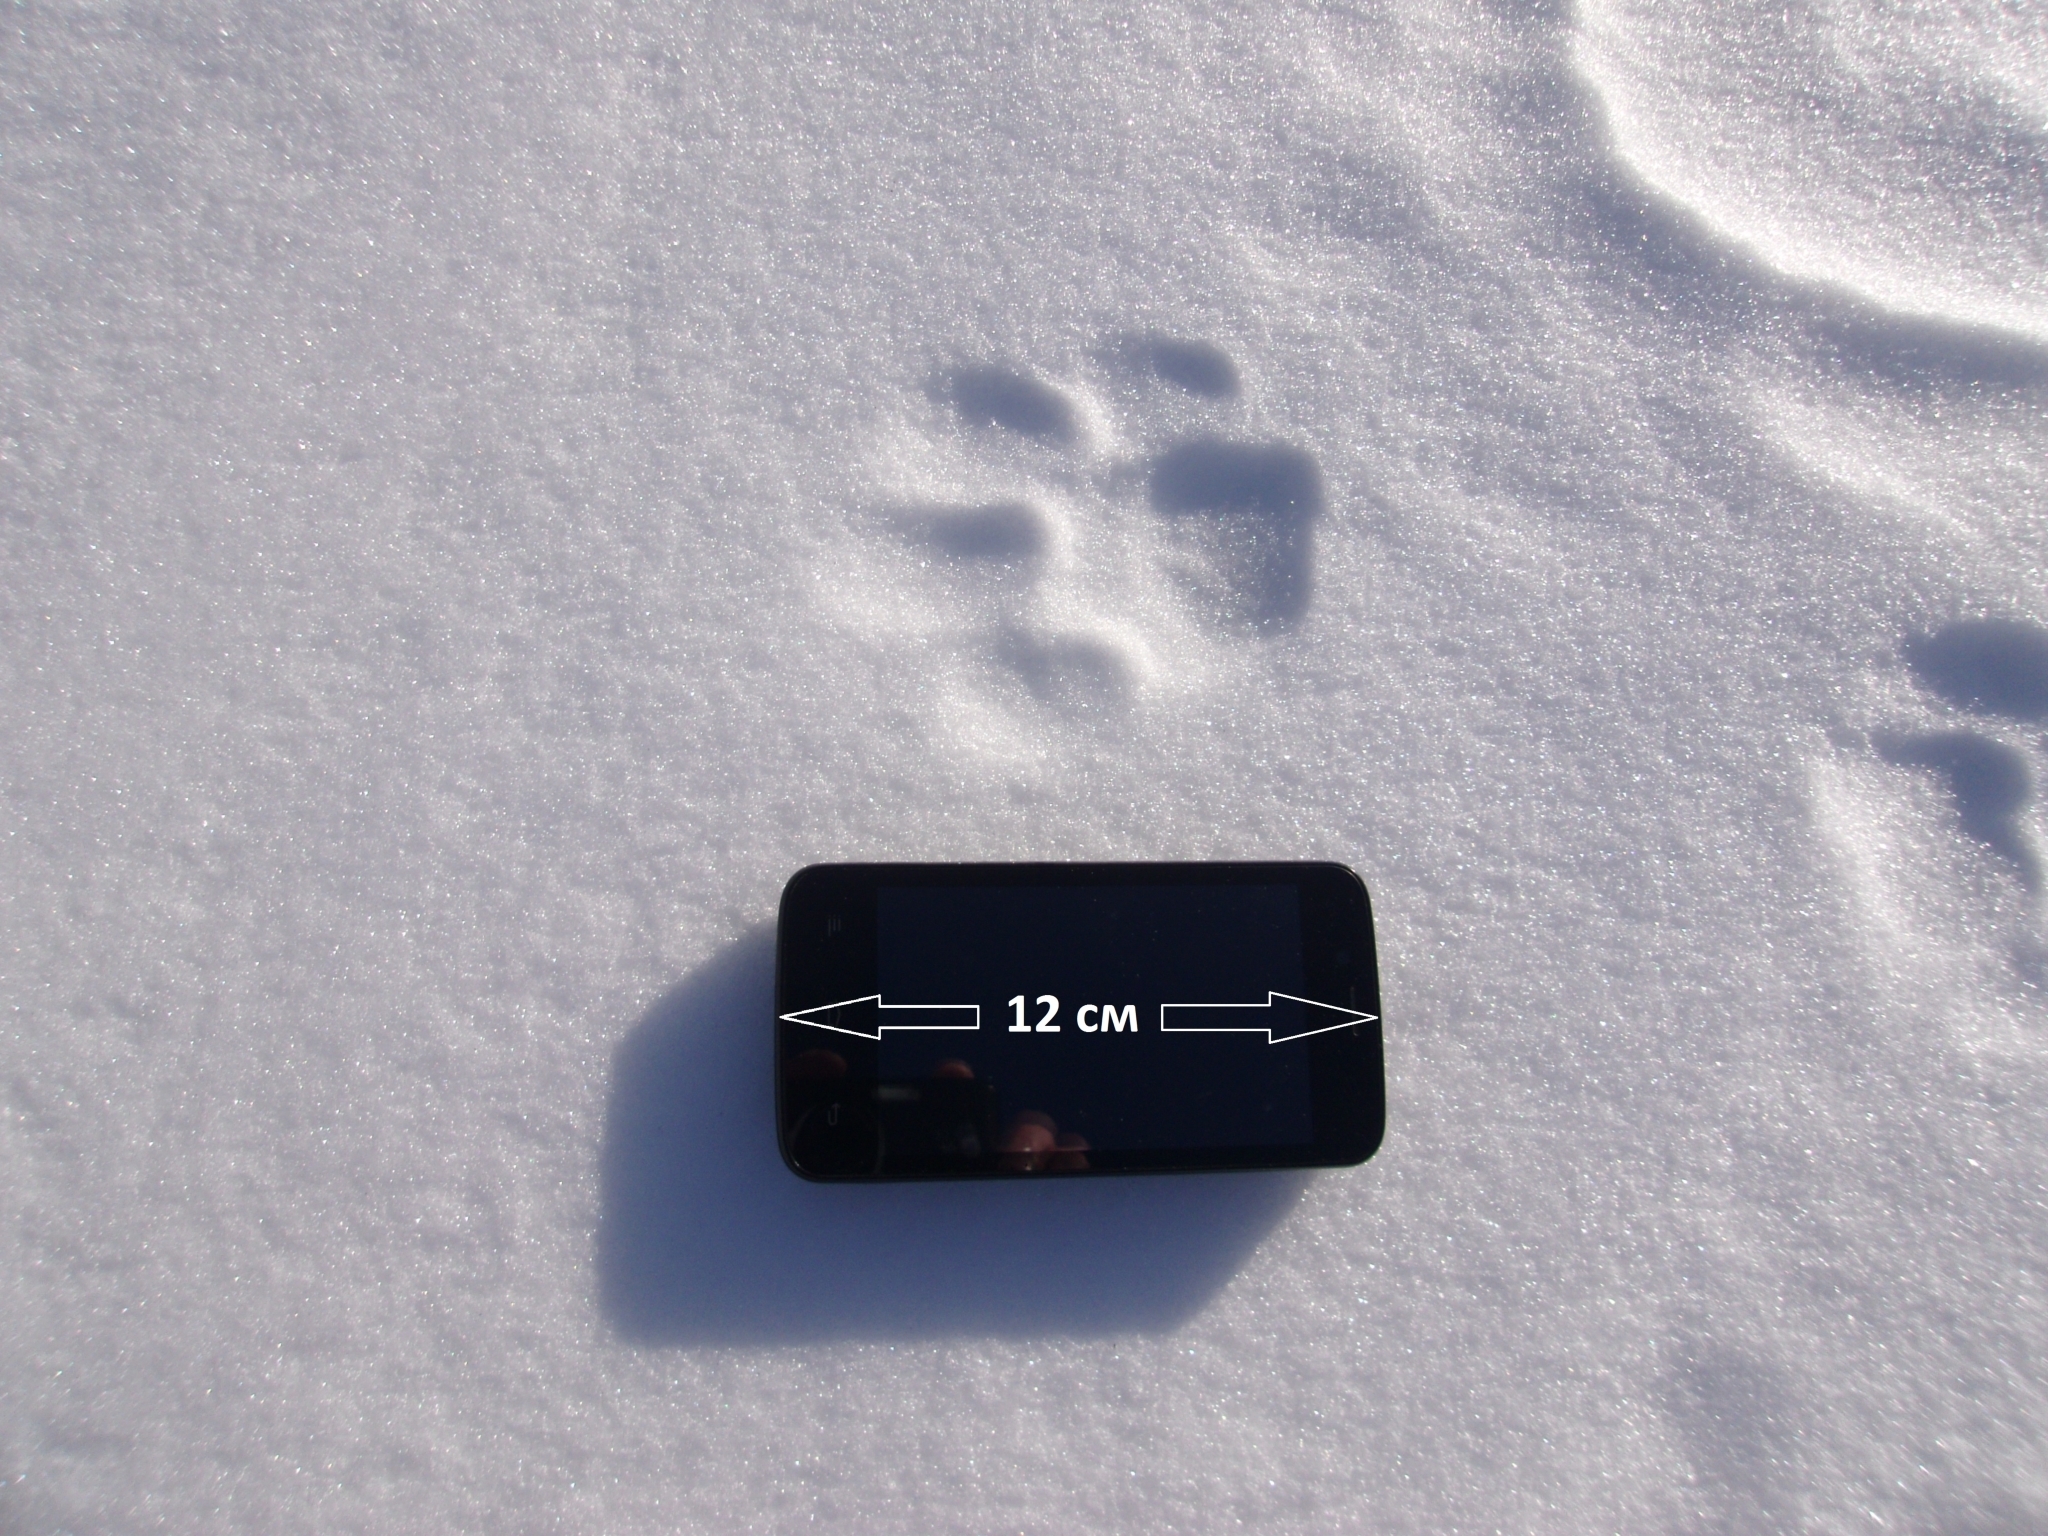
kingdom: Animalia
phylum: Chordata
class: Mammalia
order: Carnivora
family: Felidae
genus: Lynx
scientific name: Lynx lynx
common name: Eurasian lynx
